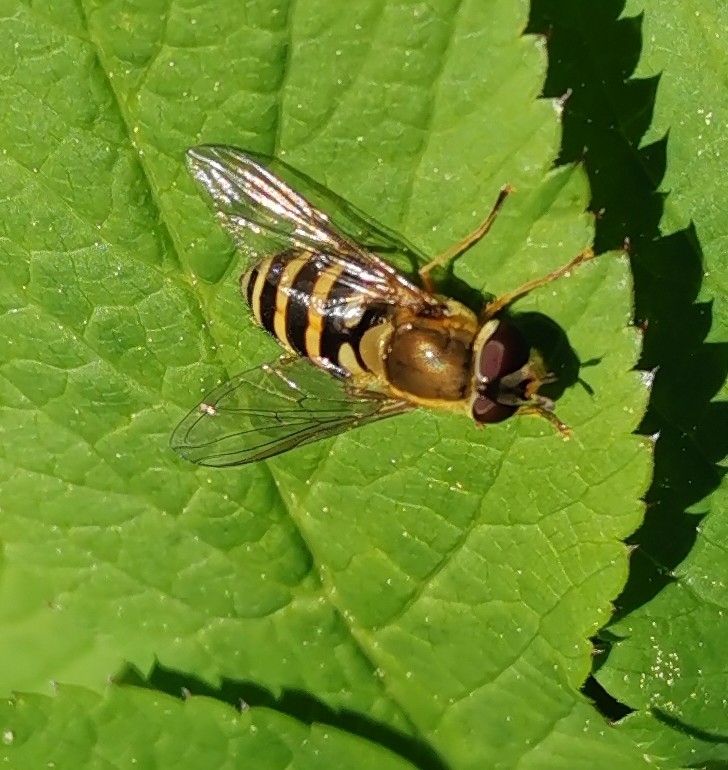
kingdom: Animalia
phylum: Arthropoda
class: Insecta
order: Diptera
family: Syrphidae
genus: Syrphus
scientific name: Syrphus
